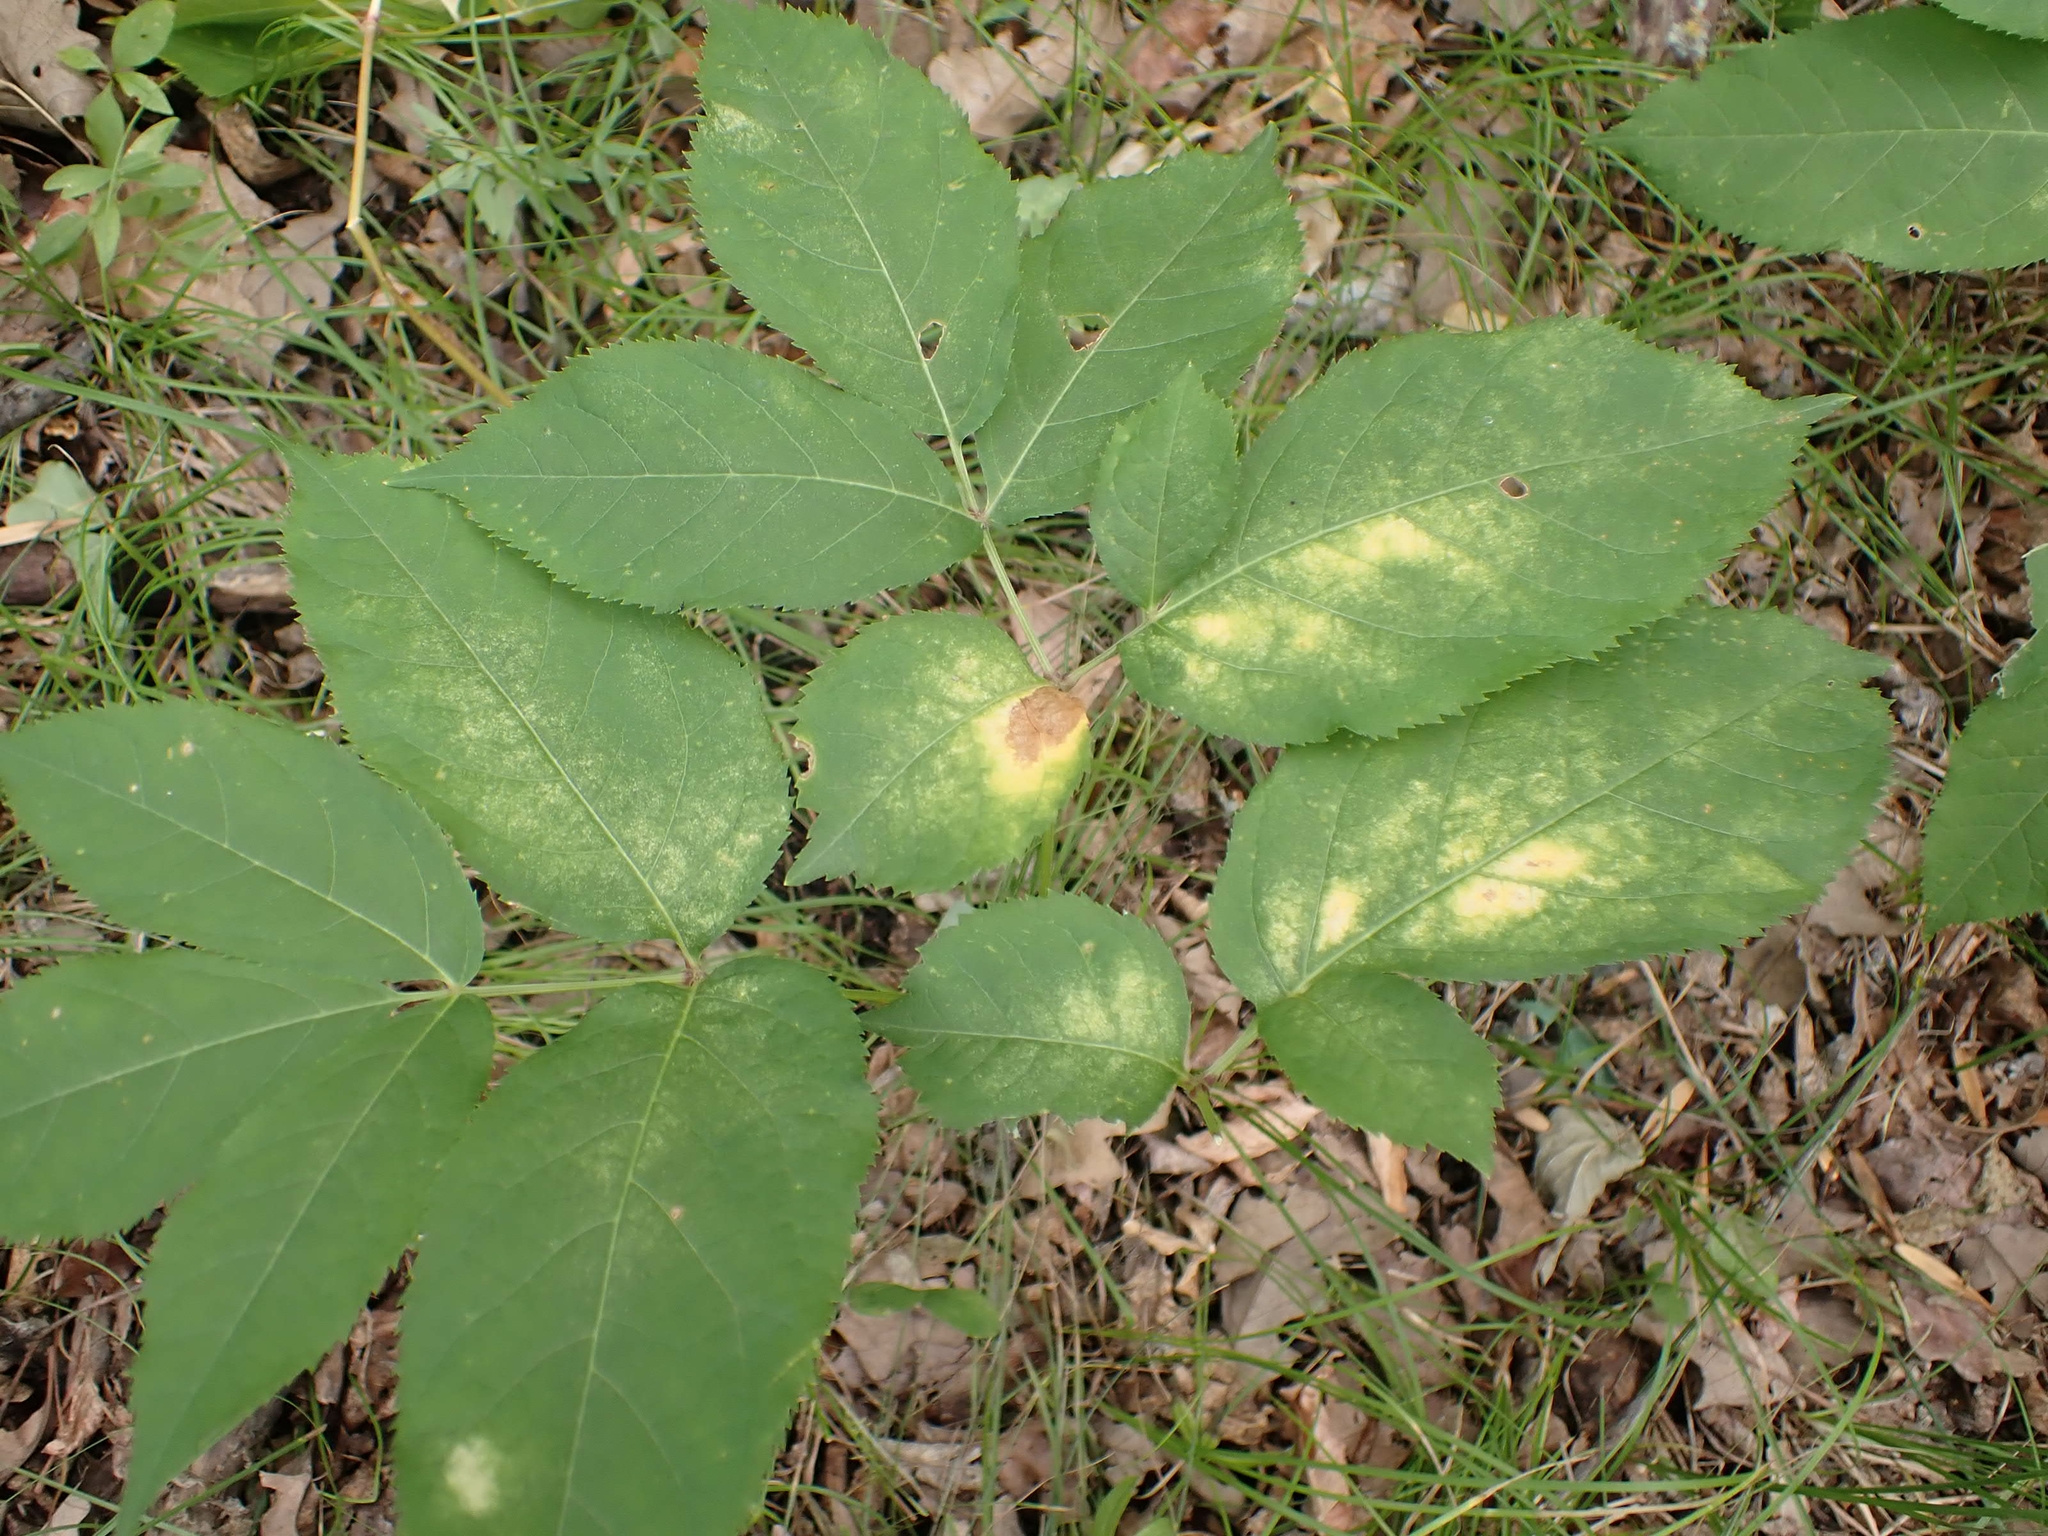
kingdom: Plantae
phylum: Tracheophyta
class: Magnoliopsida
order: Apiales
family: Araliaceae
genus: Aralia
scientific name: Aralia nudicaulis
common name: Wild sarsaparilla
